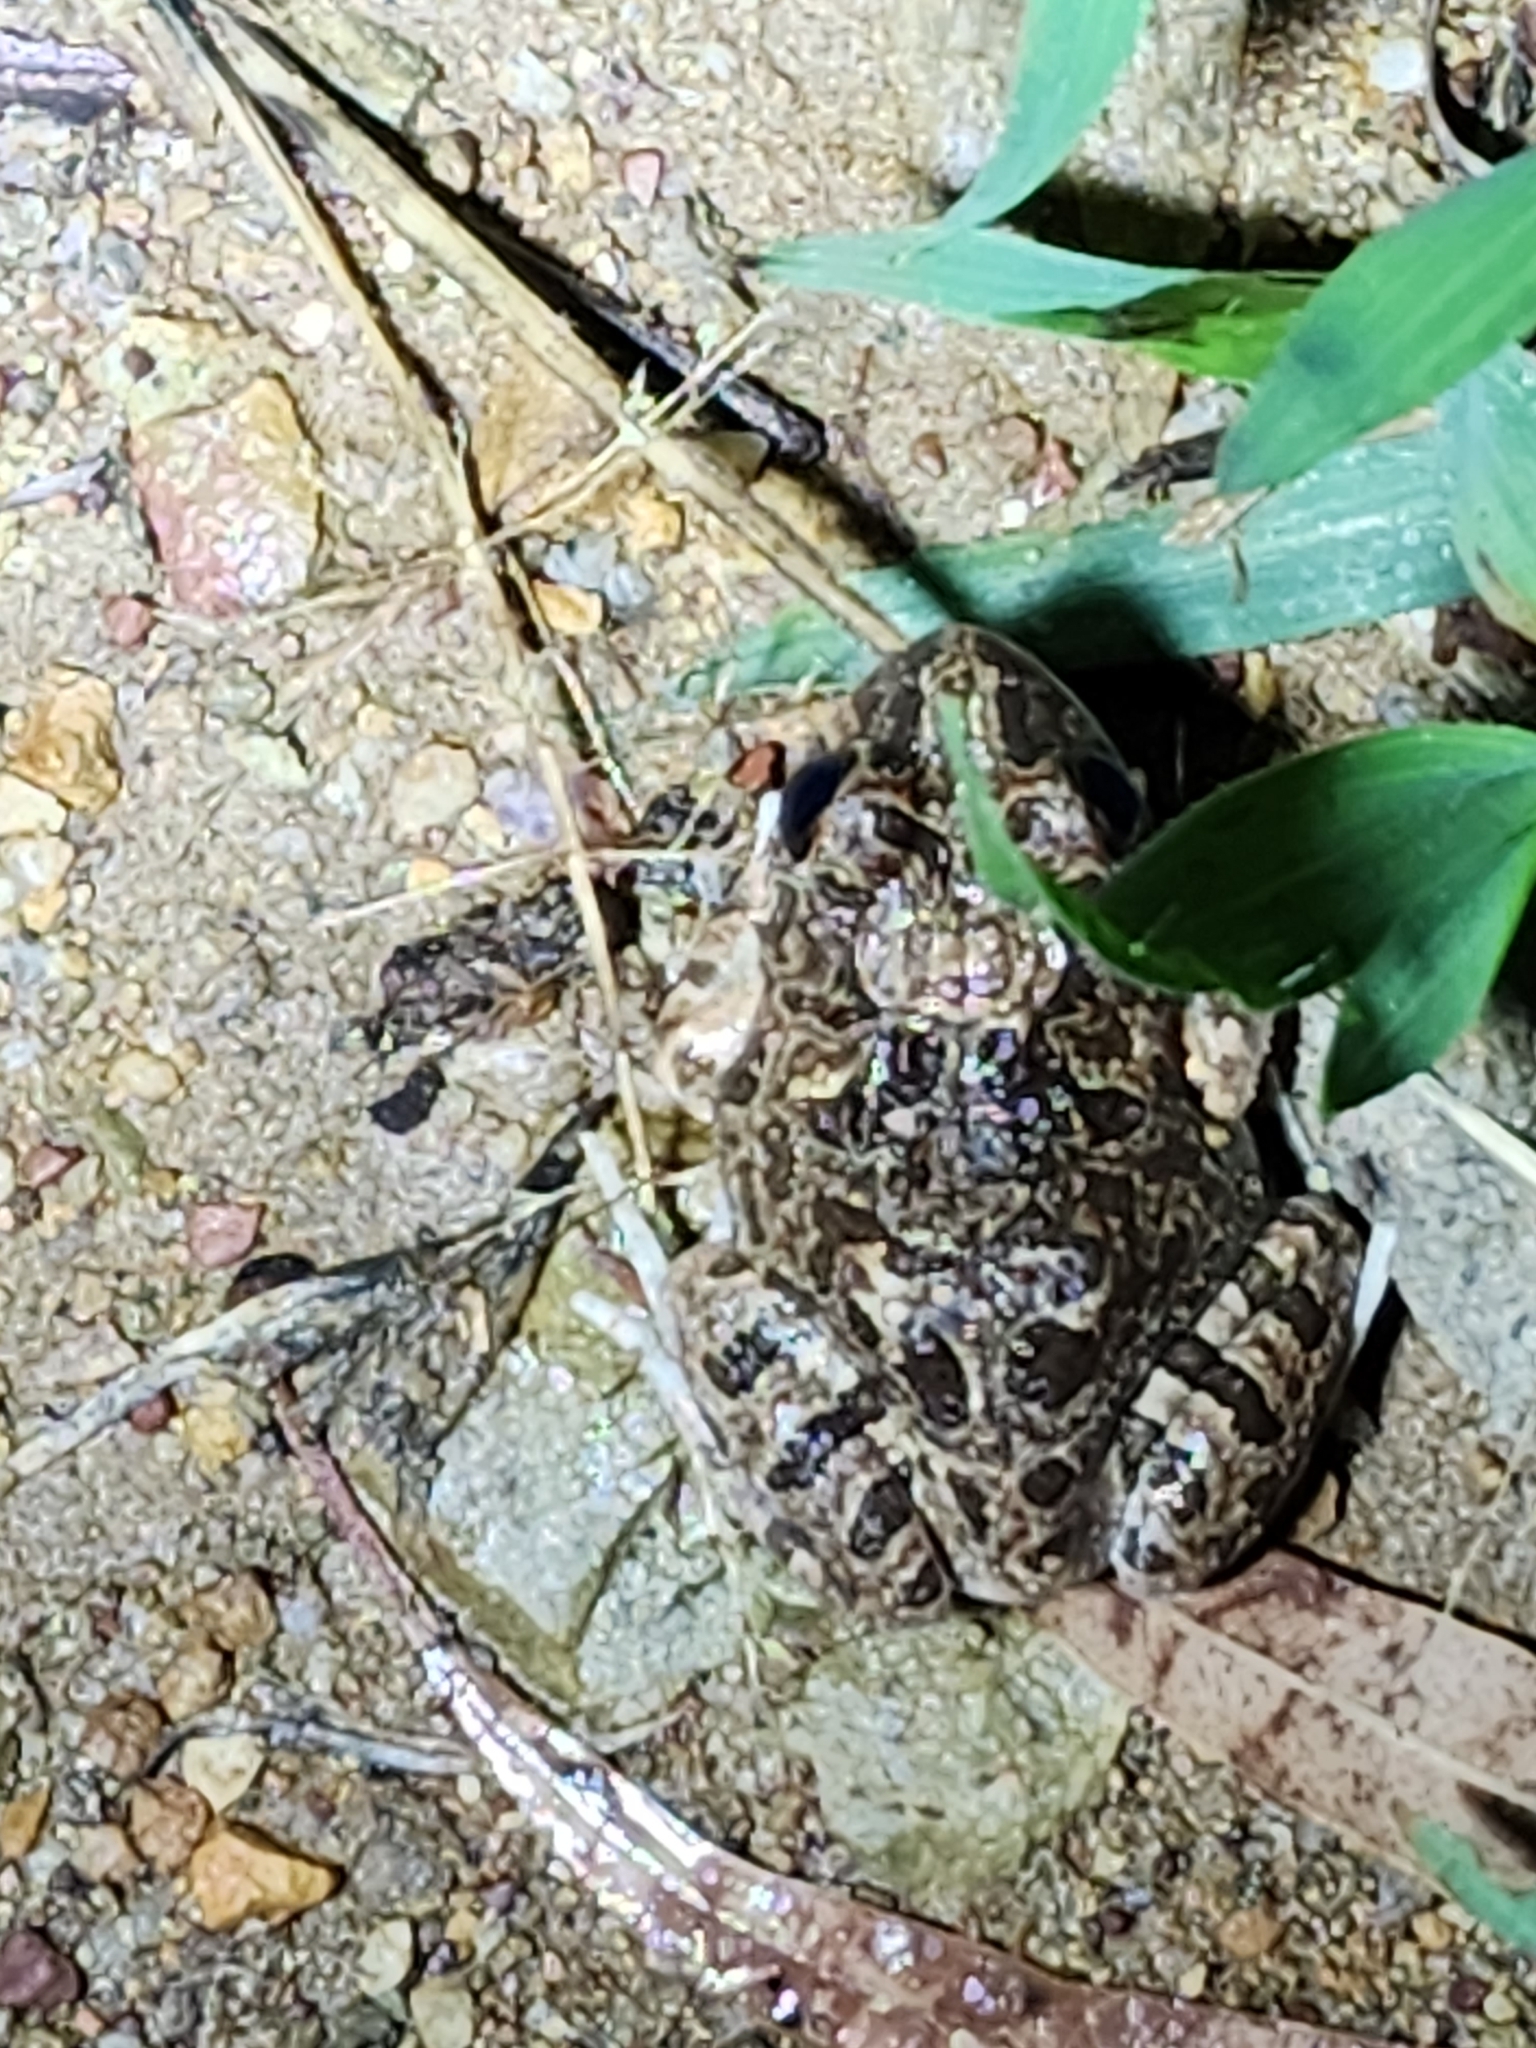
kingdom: Animalia
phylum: Chordata
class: Amphibia
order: Anura
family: Limnodynastidae
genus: Platyplectrum
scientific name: Platyplectrum ornatum
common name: Ornate burrowing frog
